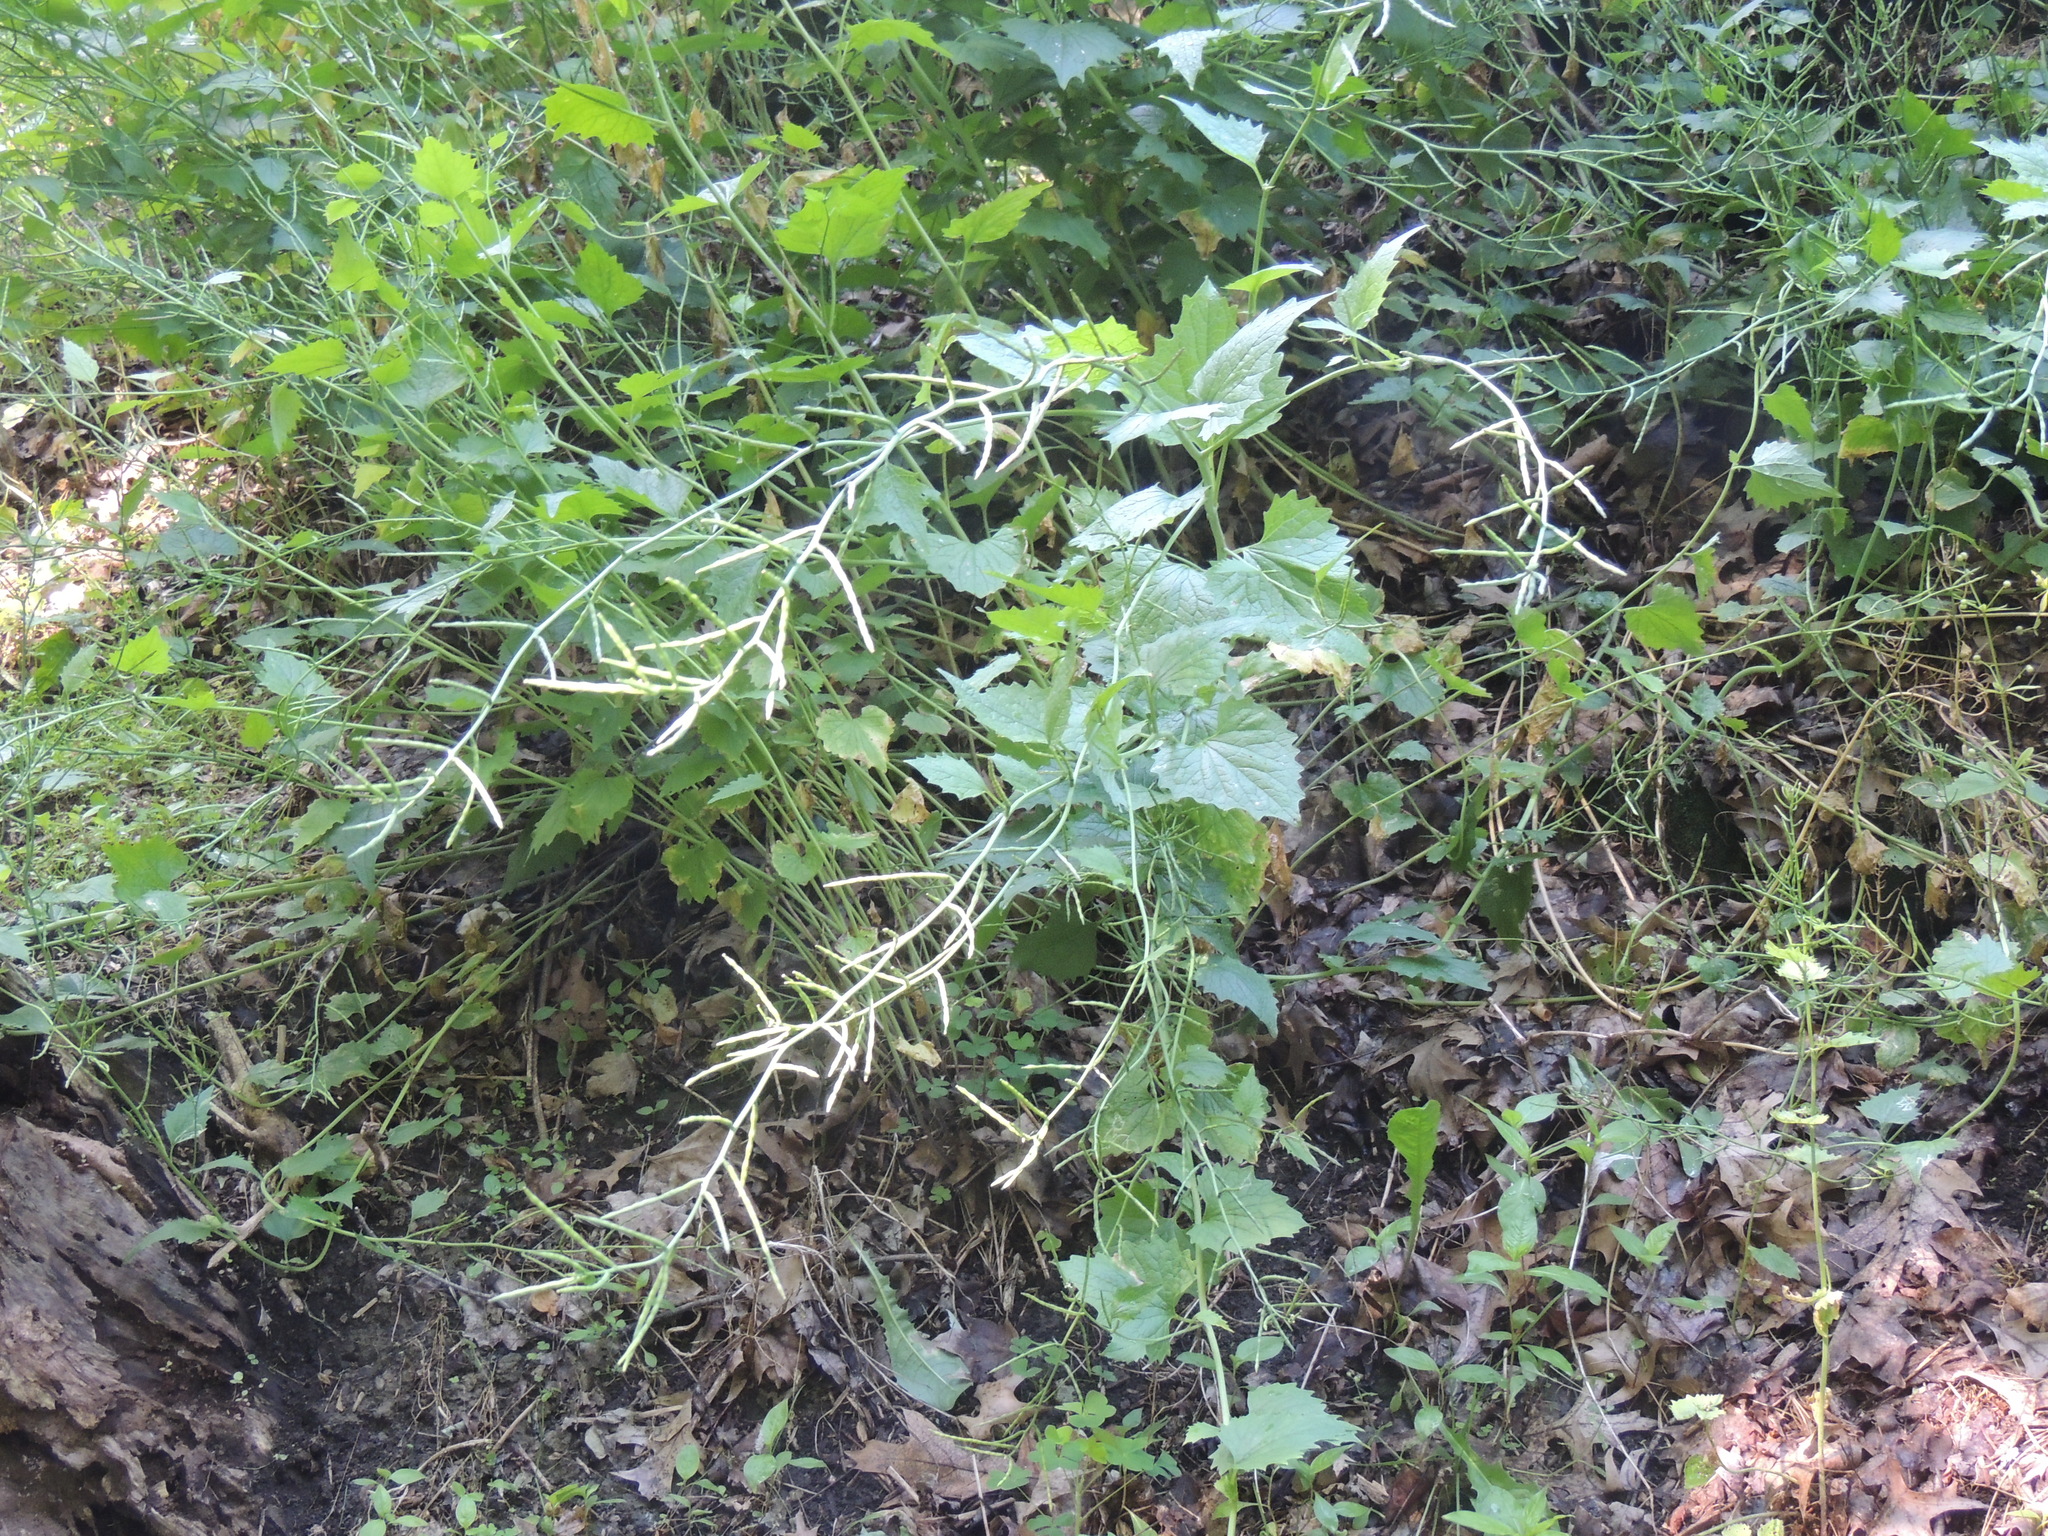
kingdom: Plantae
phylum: Tracheophyta
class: Magnoliopsida
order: Brassicales
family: Brassicaceae
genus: Alliaria
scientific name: Alliaria petiolata
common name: Garlic mustard
